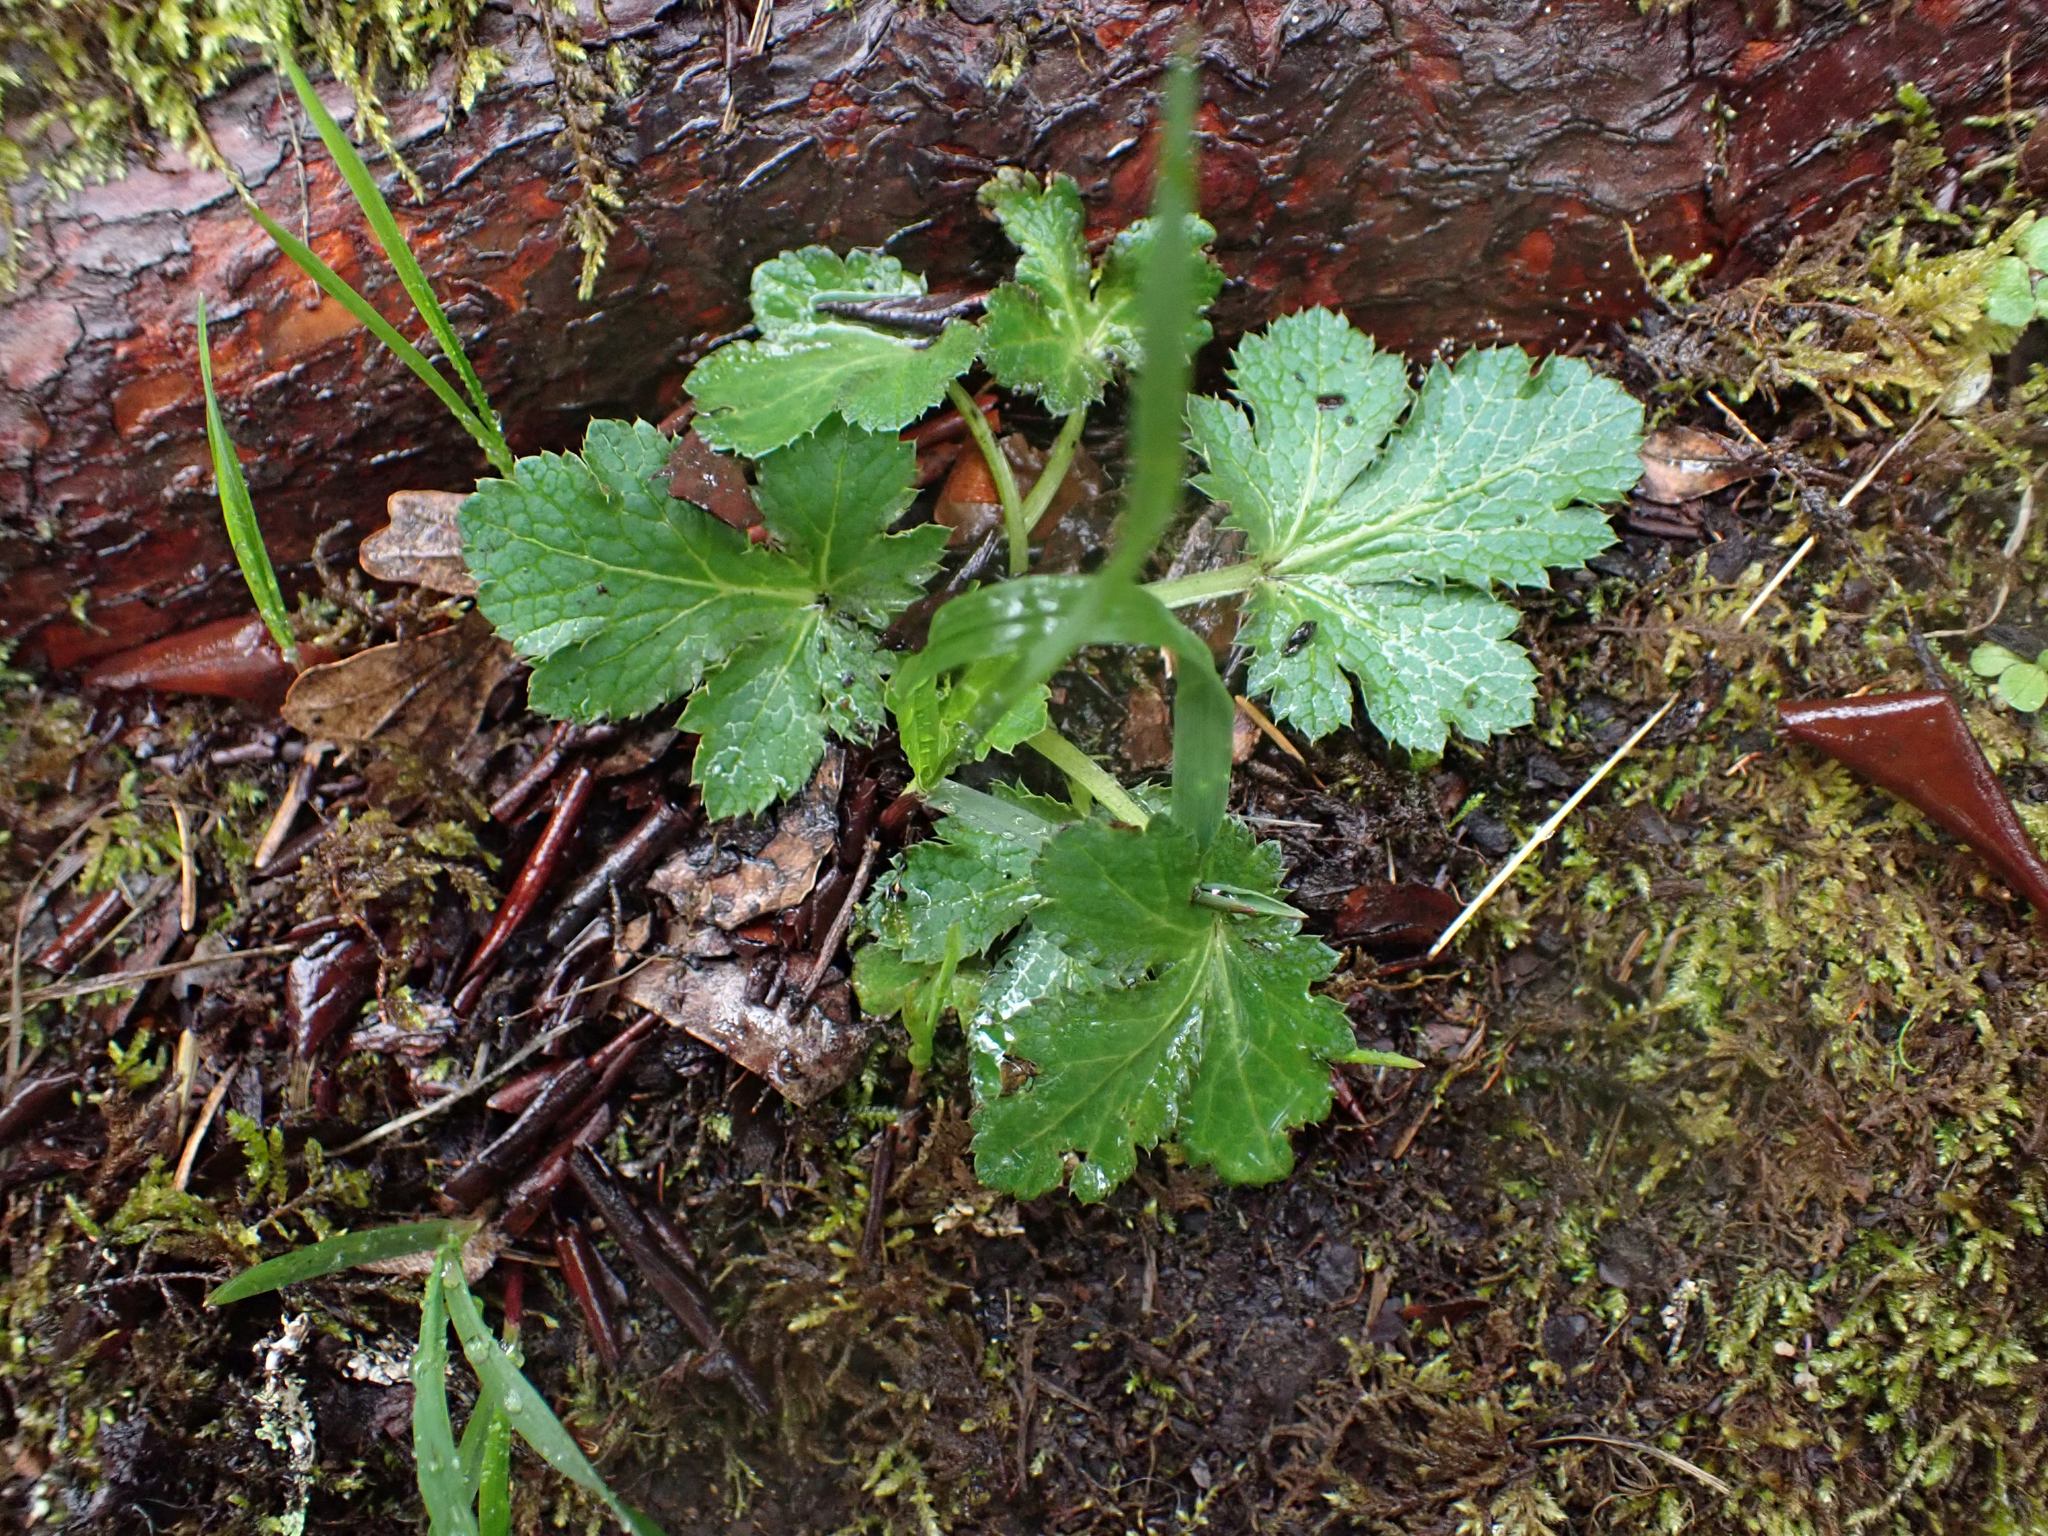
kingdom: Plantae
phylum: Tracheophyta
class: Magnoliopsida
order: Apiales
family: Apiaceae
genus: Sanicula
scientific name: Sanicula crassicaulis
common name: Western snakeroot
